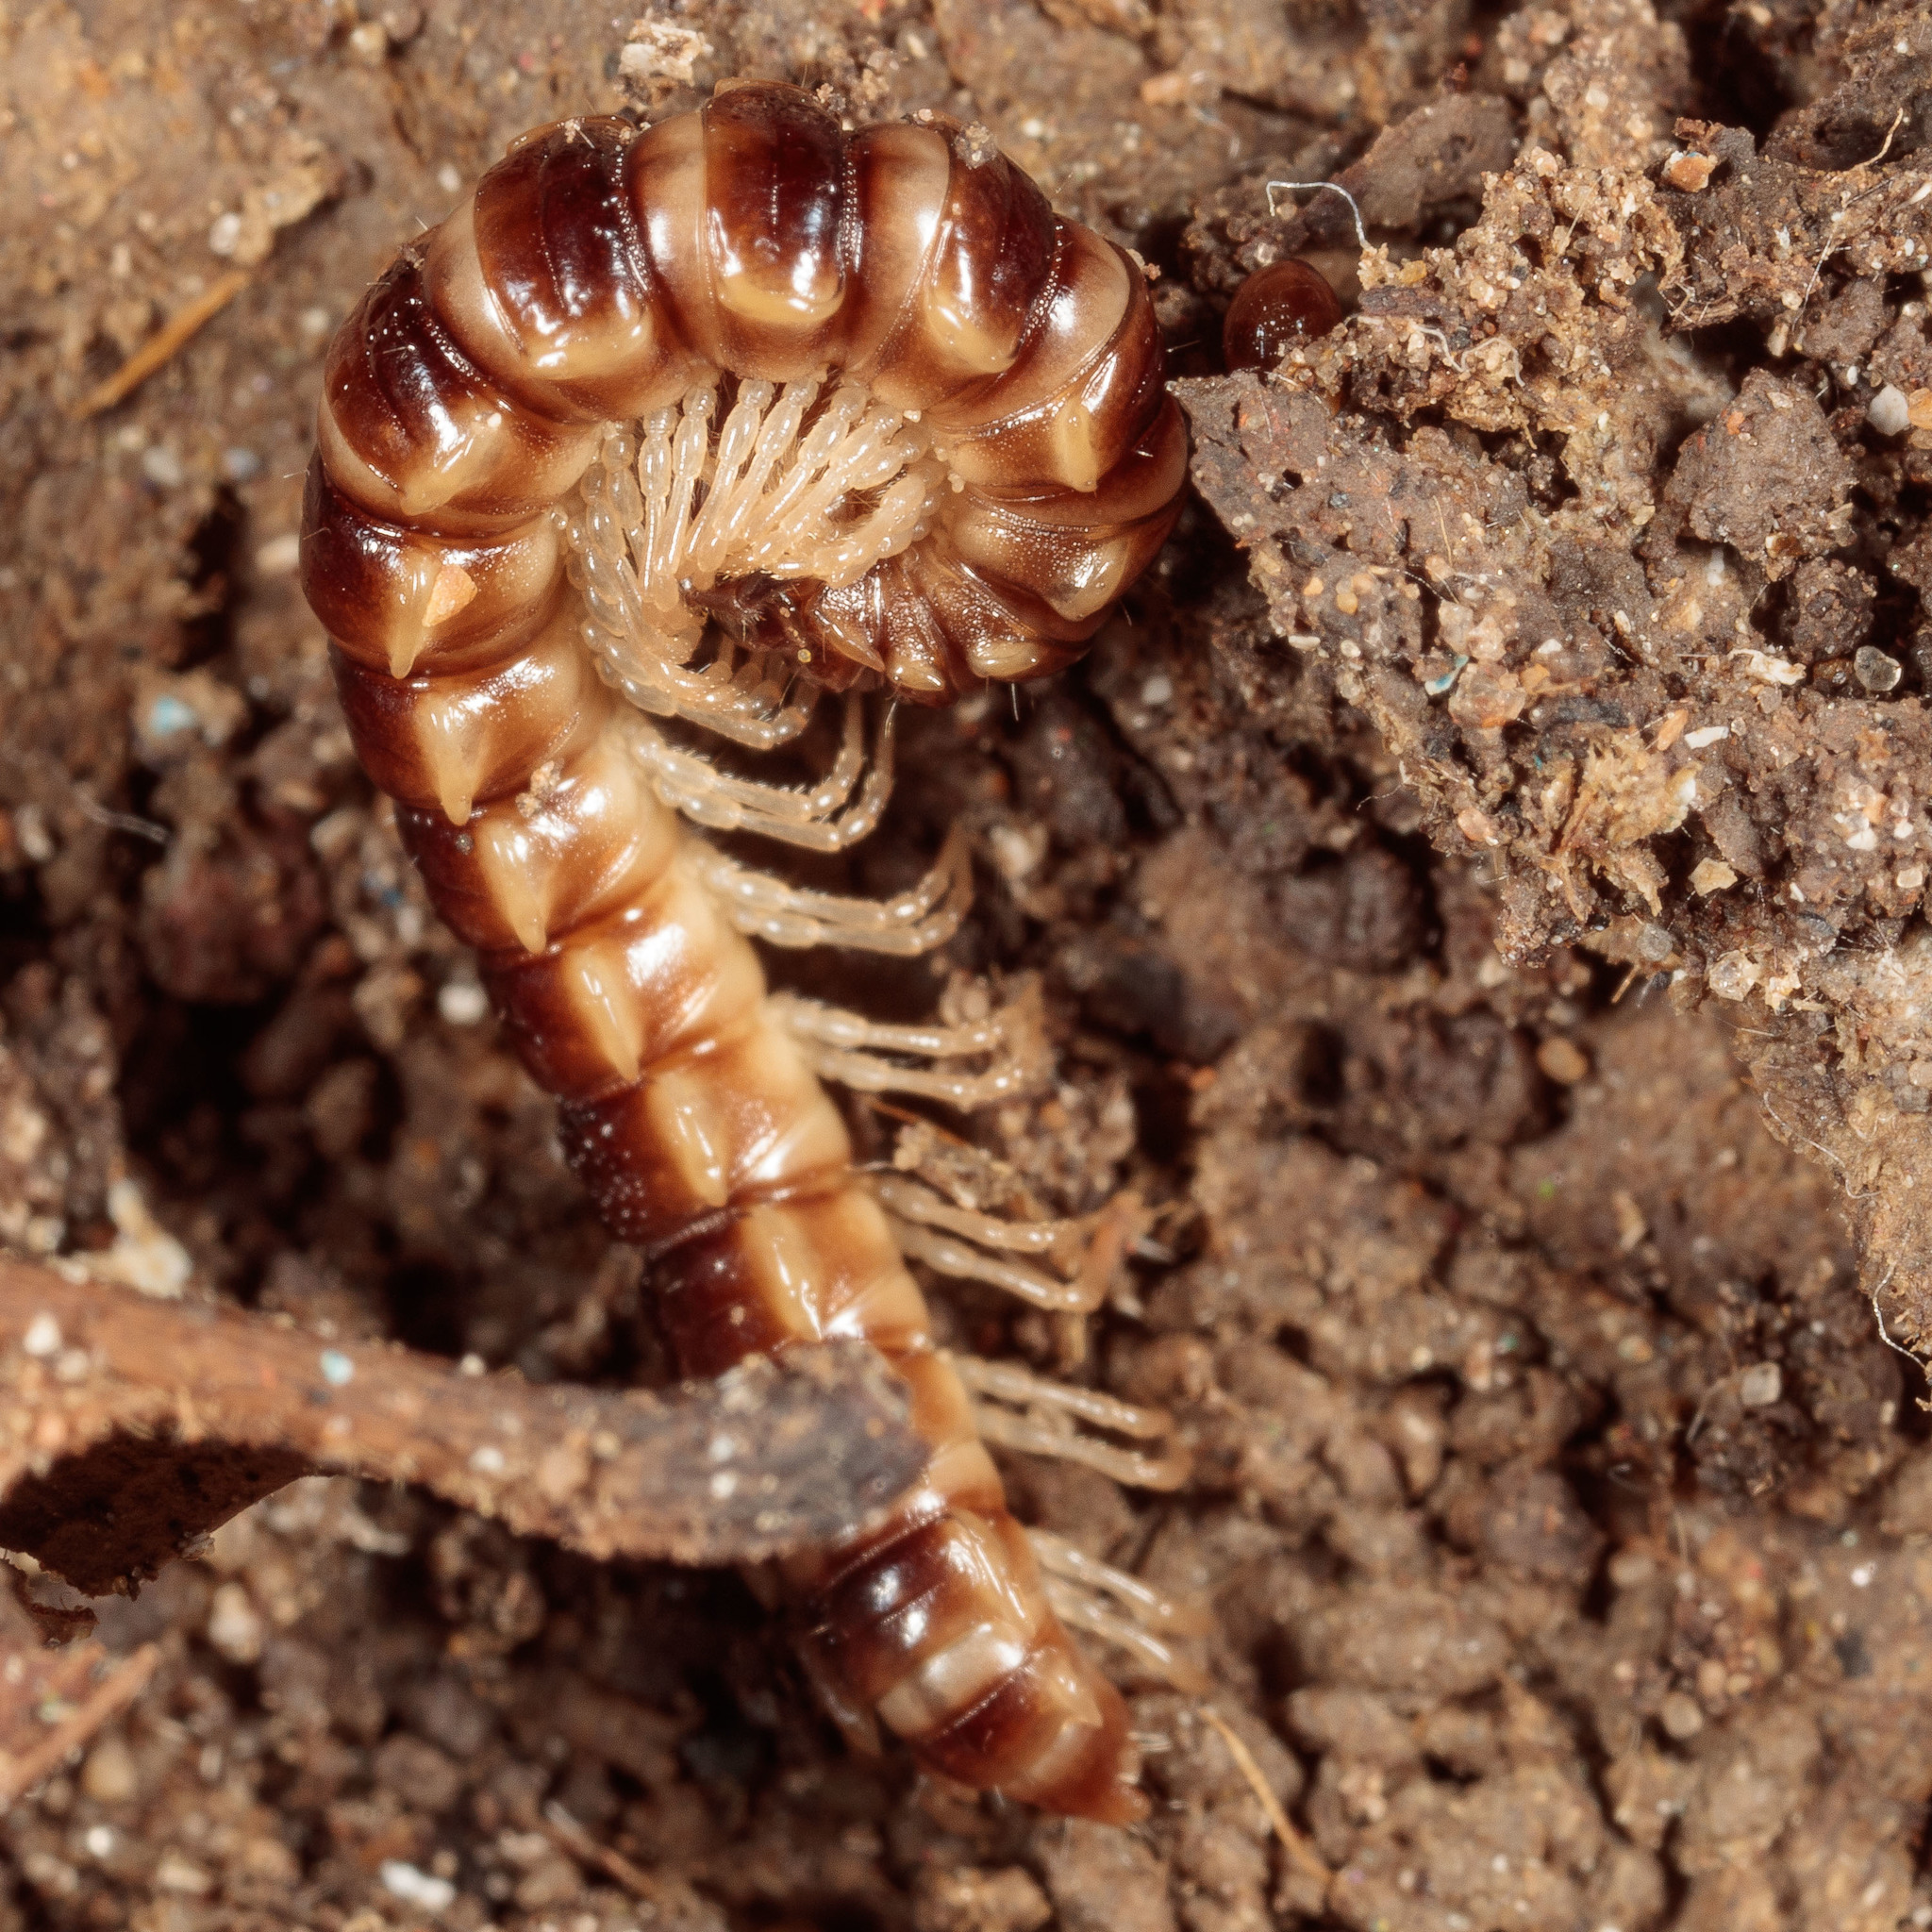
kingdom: Animalia
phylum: Arthropoda
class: Diplopoda
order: Polydesmida
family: Paradoxosomatidae
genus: Oxidus
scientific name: Oxidus gracilis
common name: Greenhouse millipede
